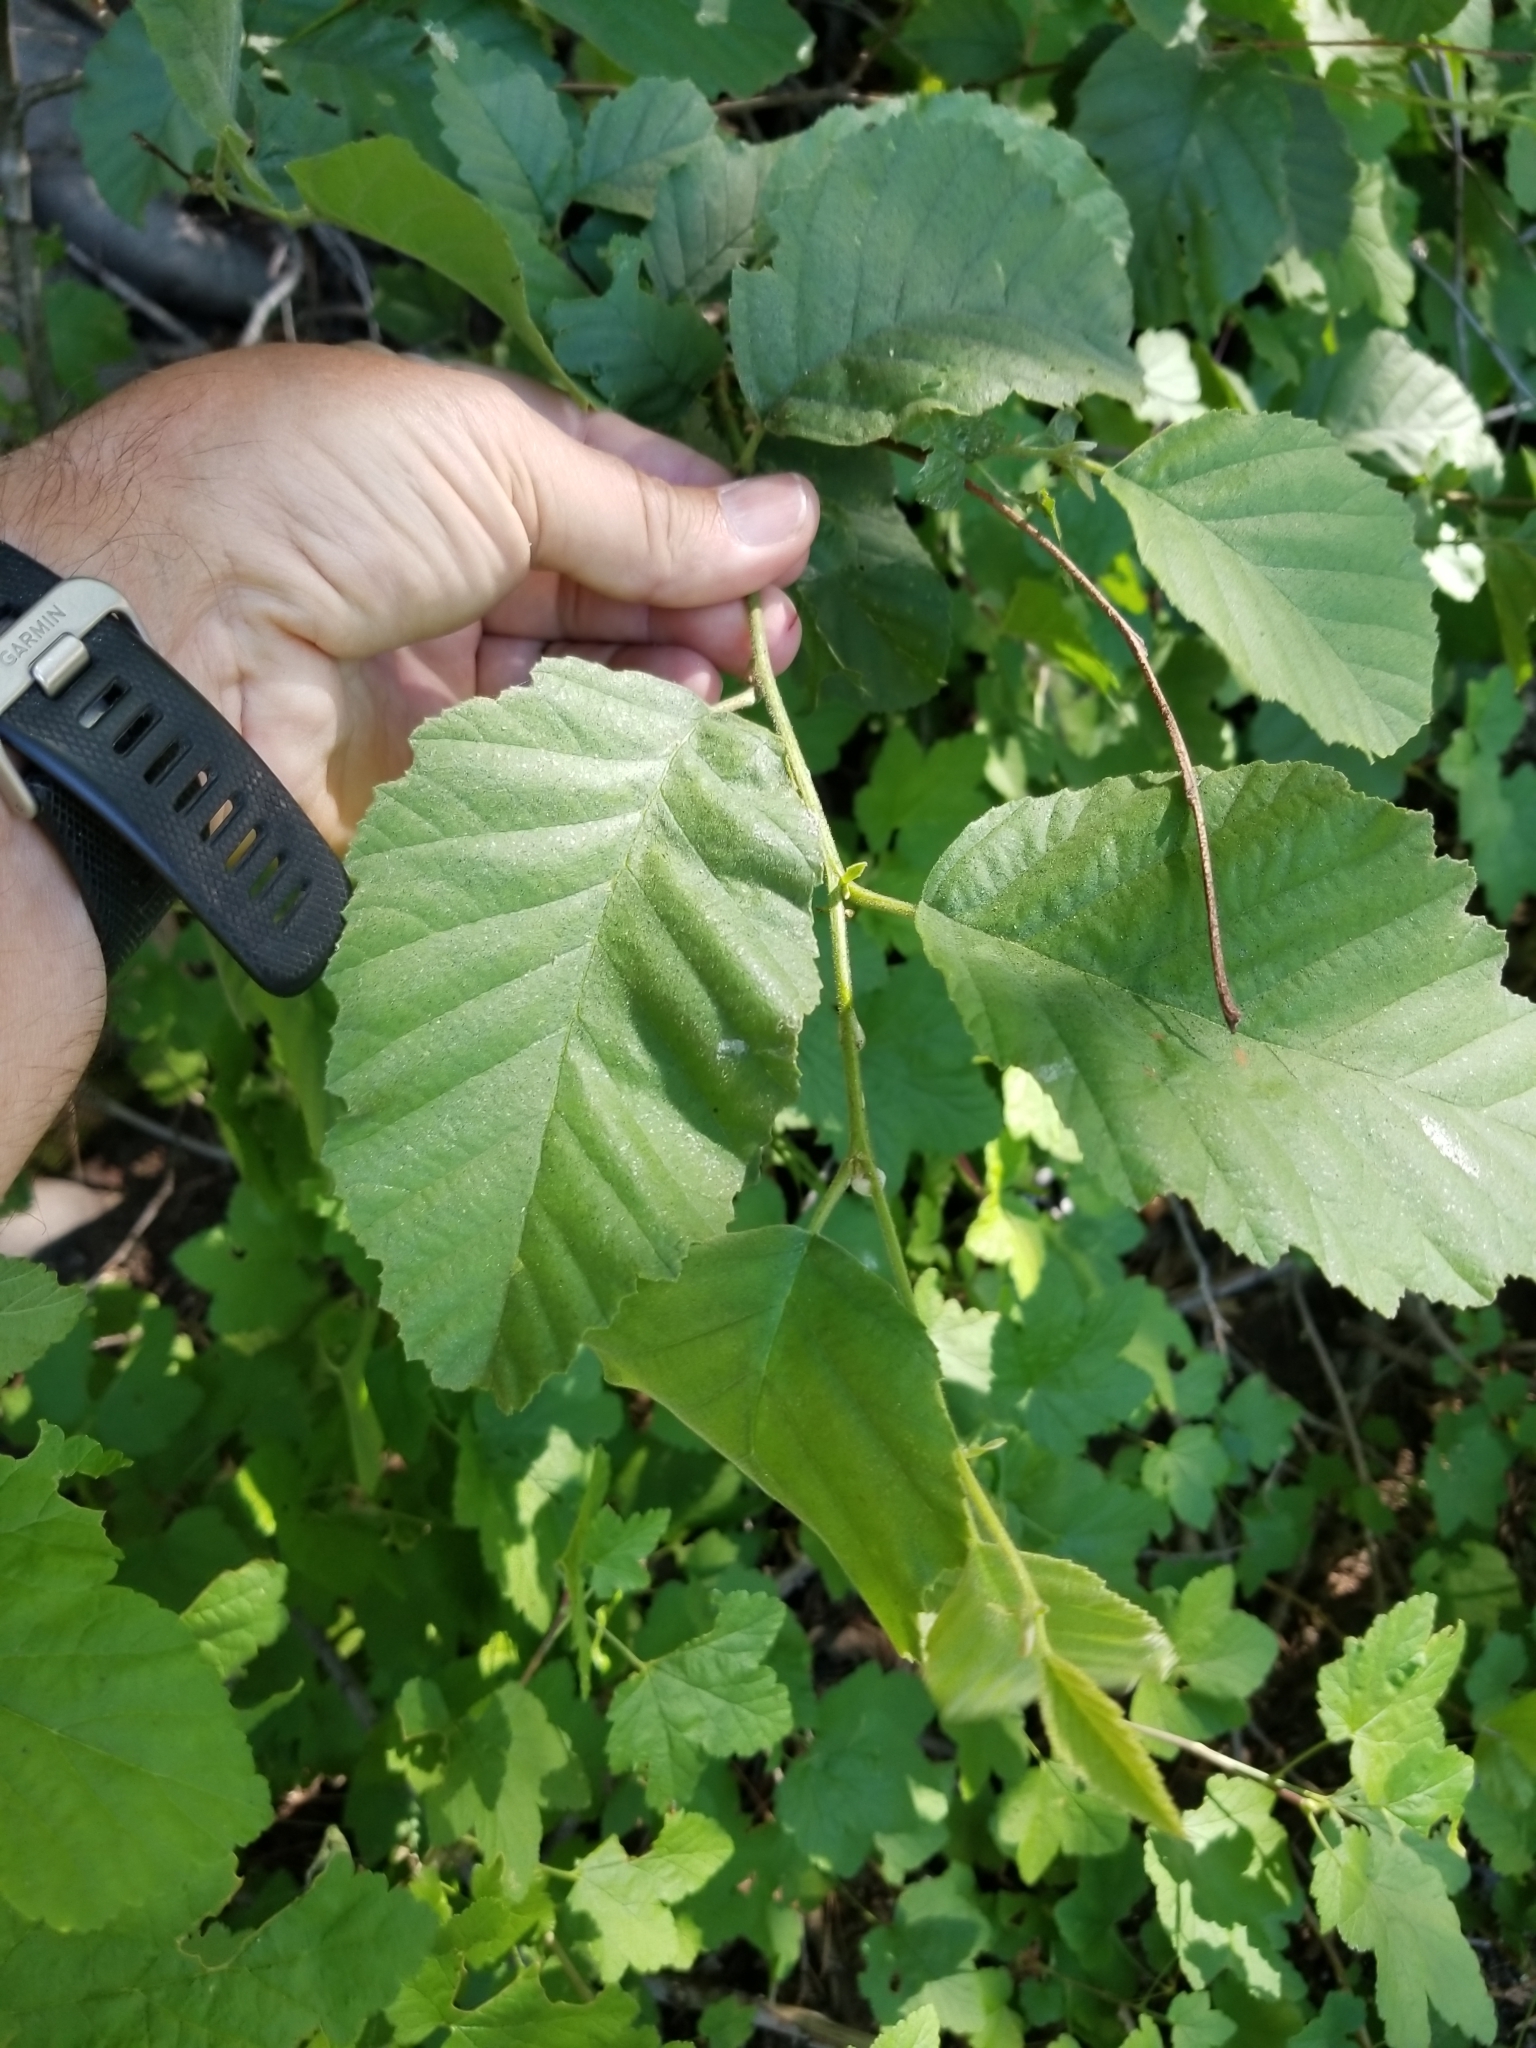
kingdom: Plantae
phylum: Tracheophyta
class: Magnoliopsida
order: Fagales
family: Betulaceae
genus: Alnus
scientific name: Alnus rhombifolia
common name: California alder
